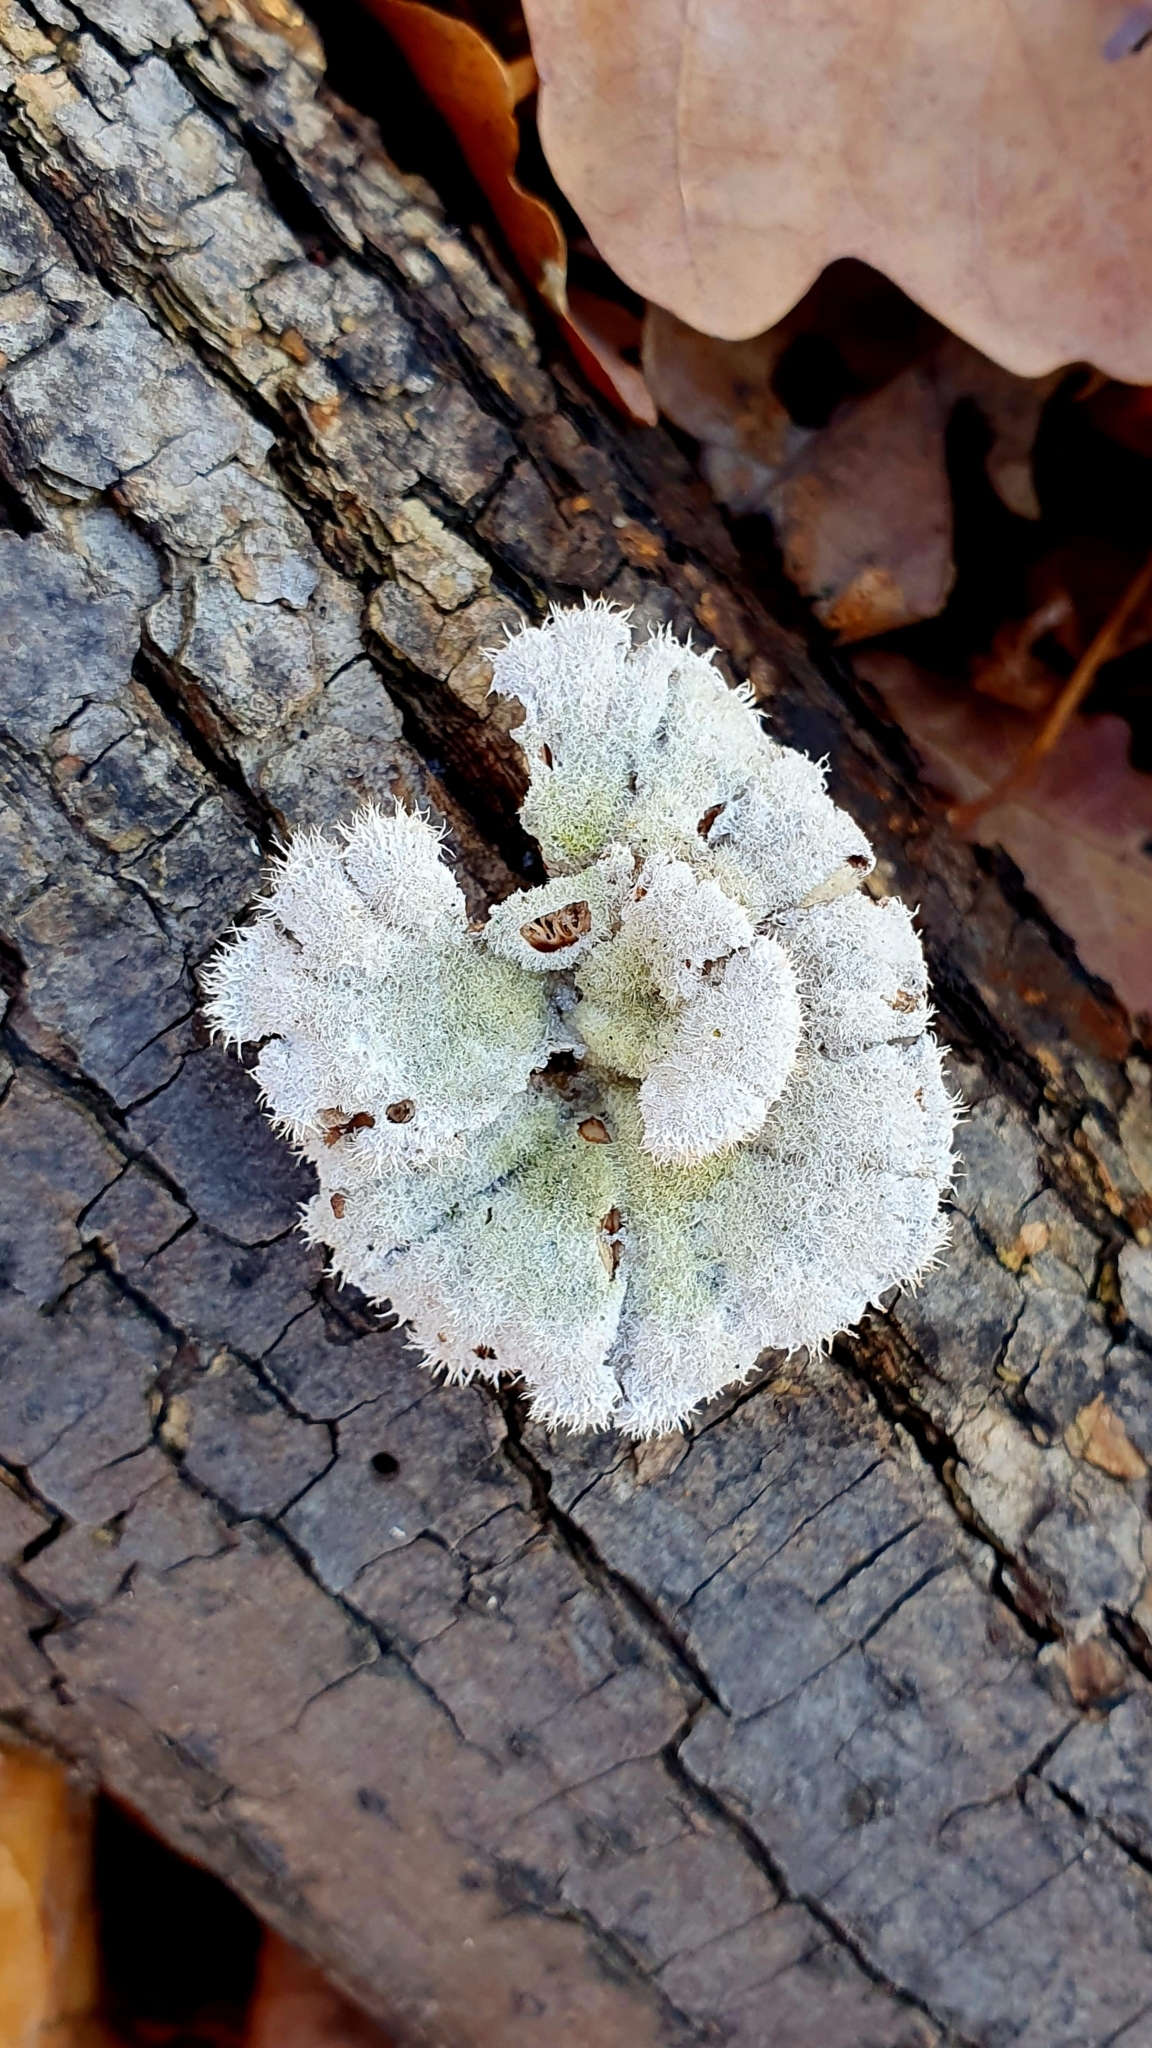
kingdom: Fungi
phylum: Basidiomycota
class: Agaricomycetes
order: Agaricales
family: Schizophyllaceae
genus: Schizophyllum
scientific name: Schizophyllum commune
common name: Common porecrust
